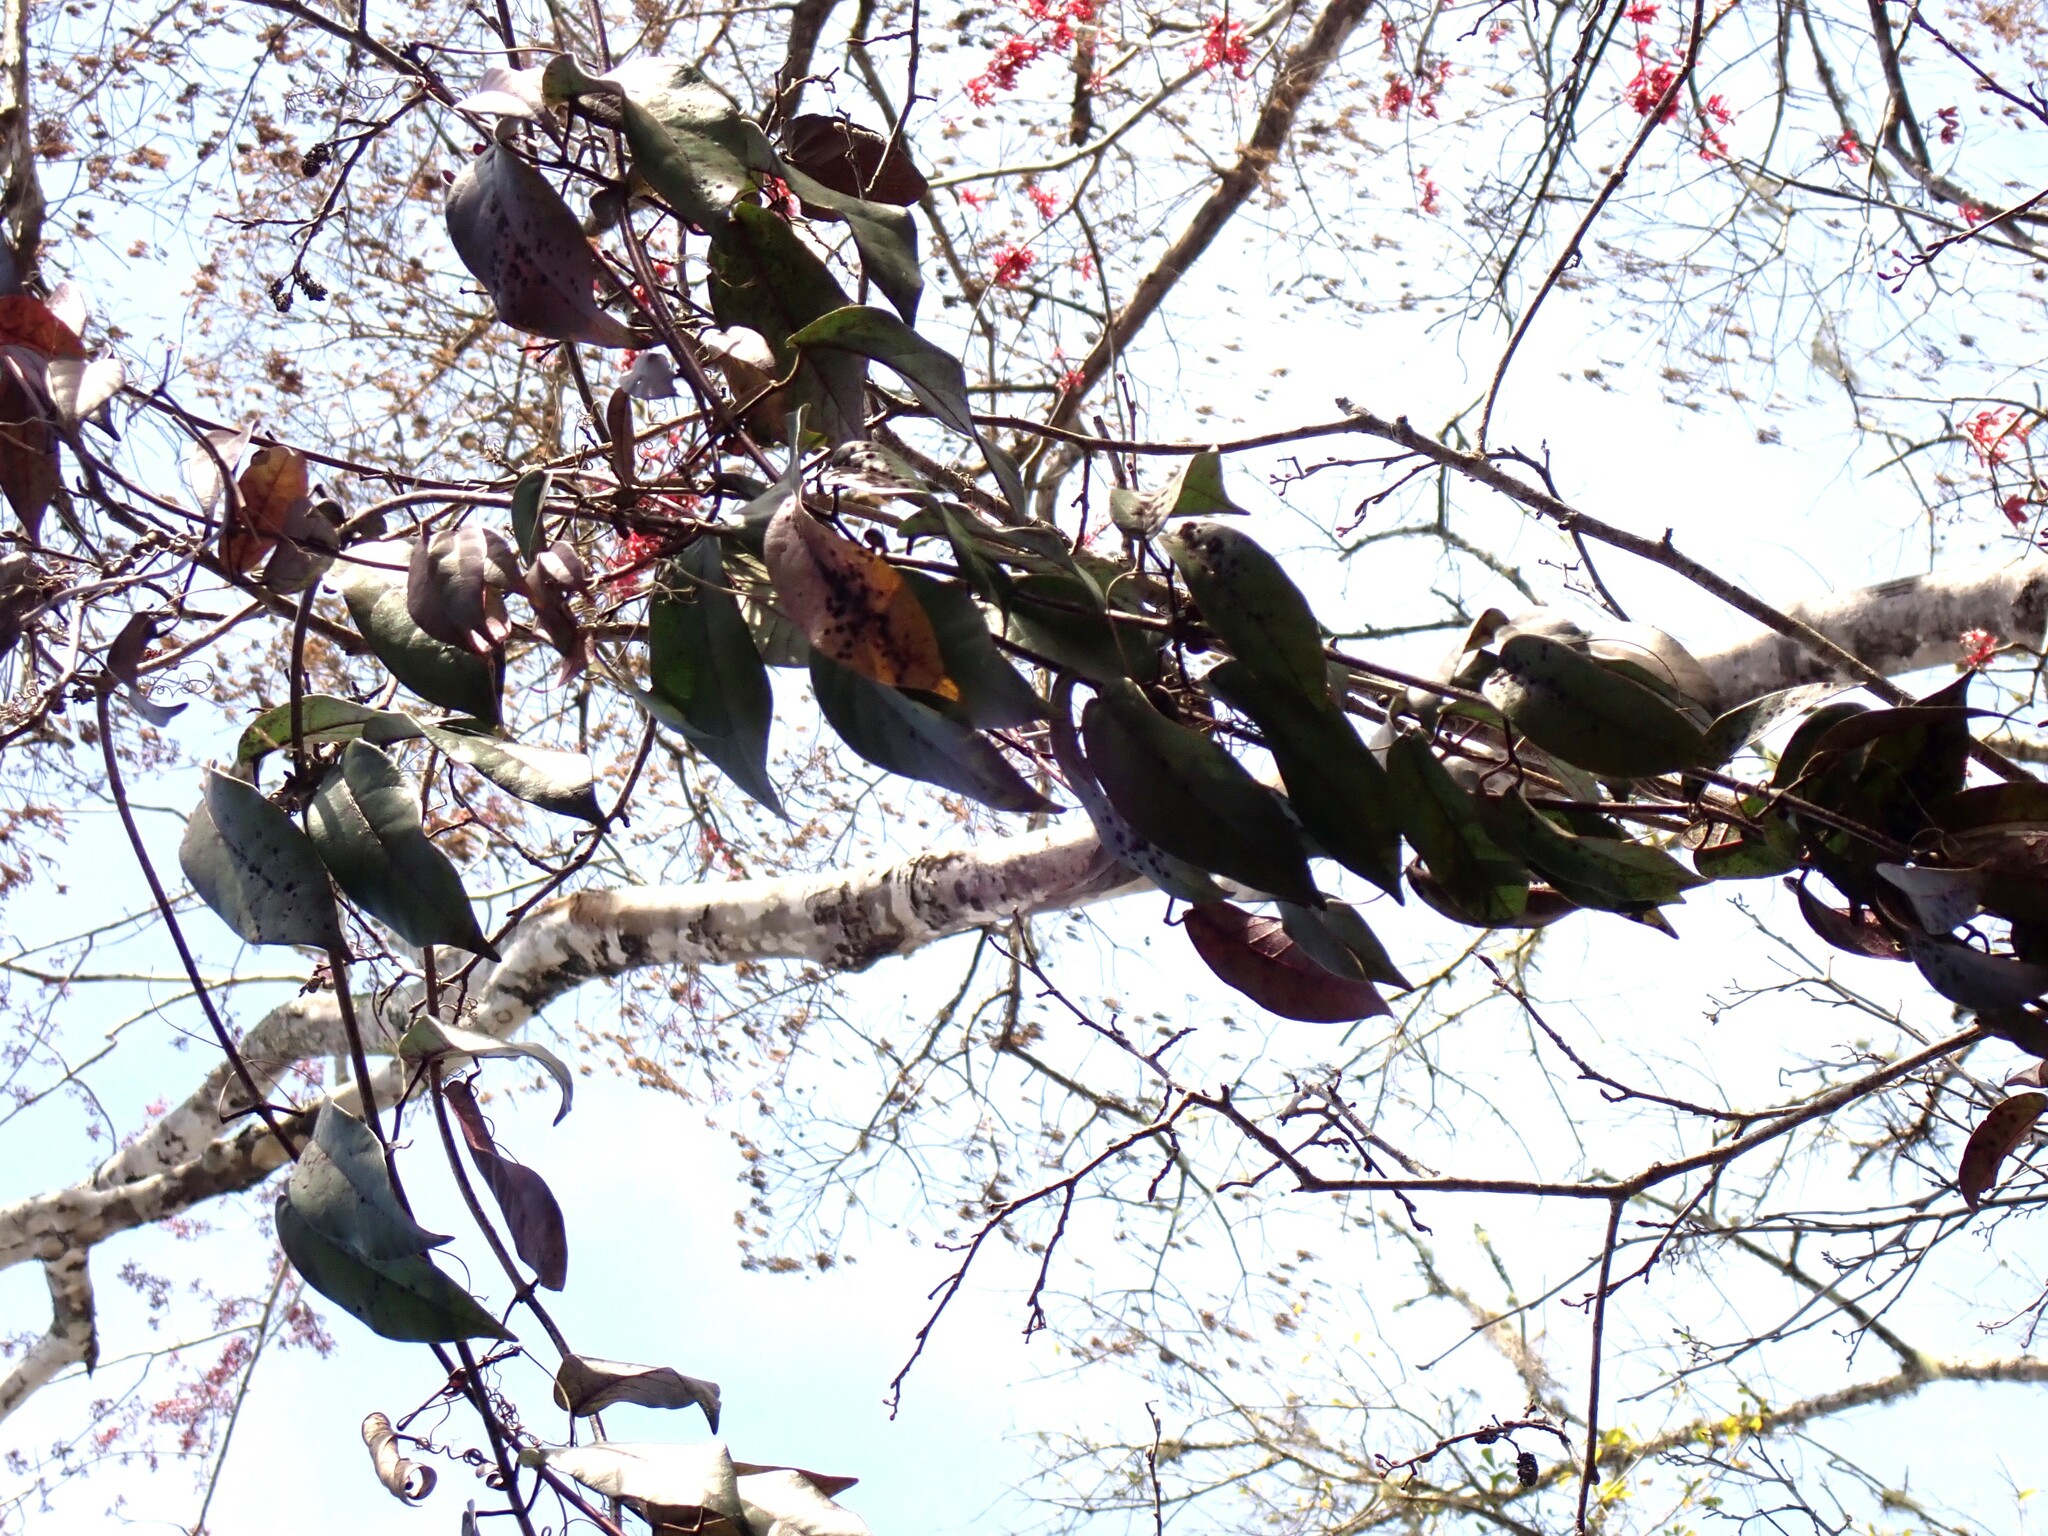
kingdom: Plantae
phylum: Tracheophyta
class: Magnoliopsida
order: Lamiales
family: Bignoniaceae
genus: Bignonia
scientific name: Bignonia capreolata
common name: Crossvine
